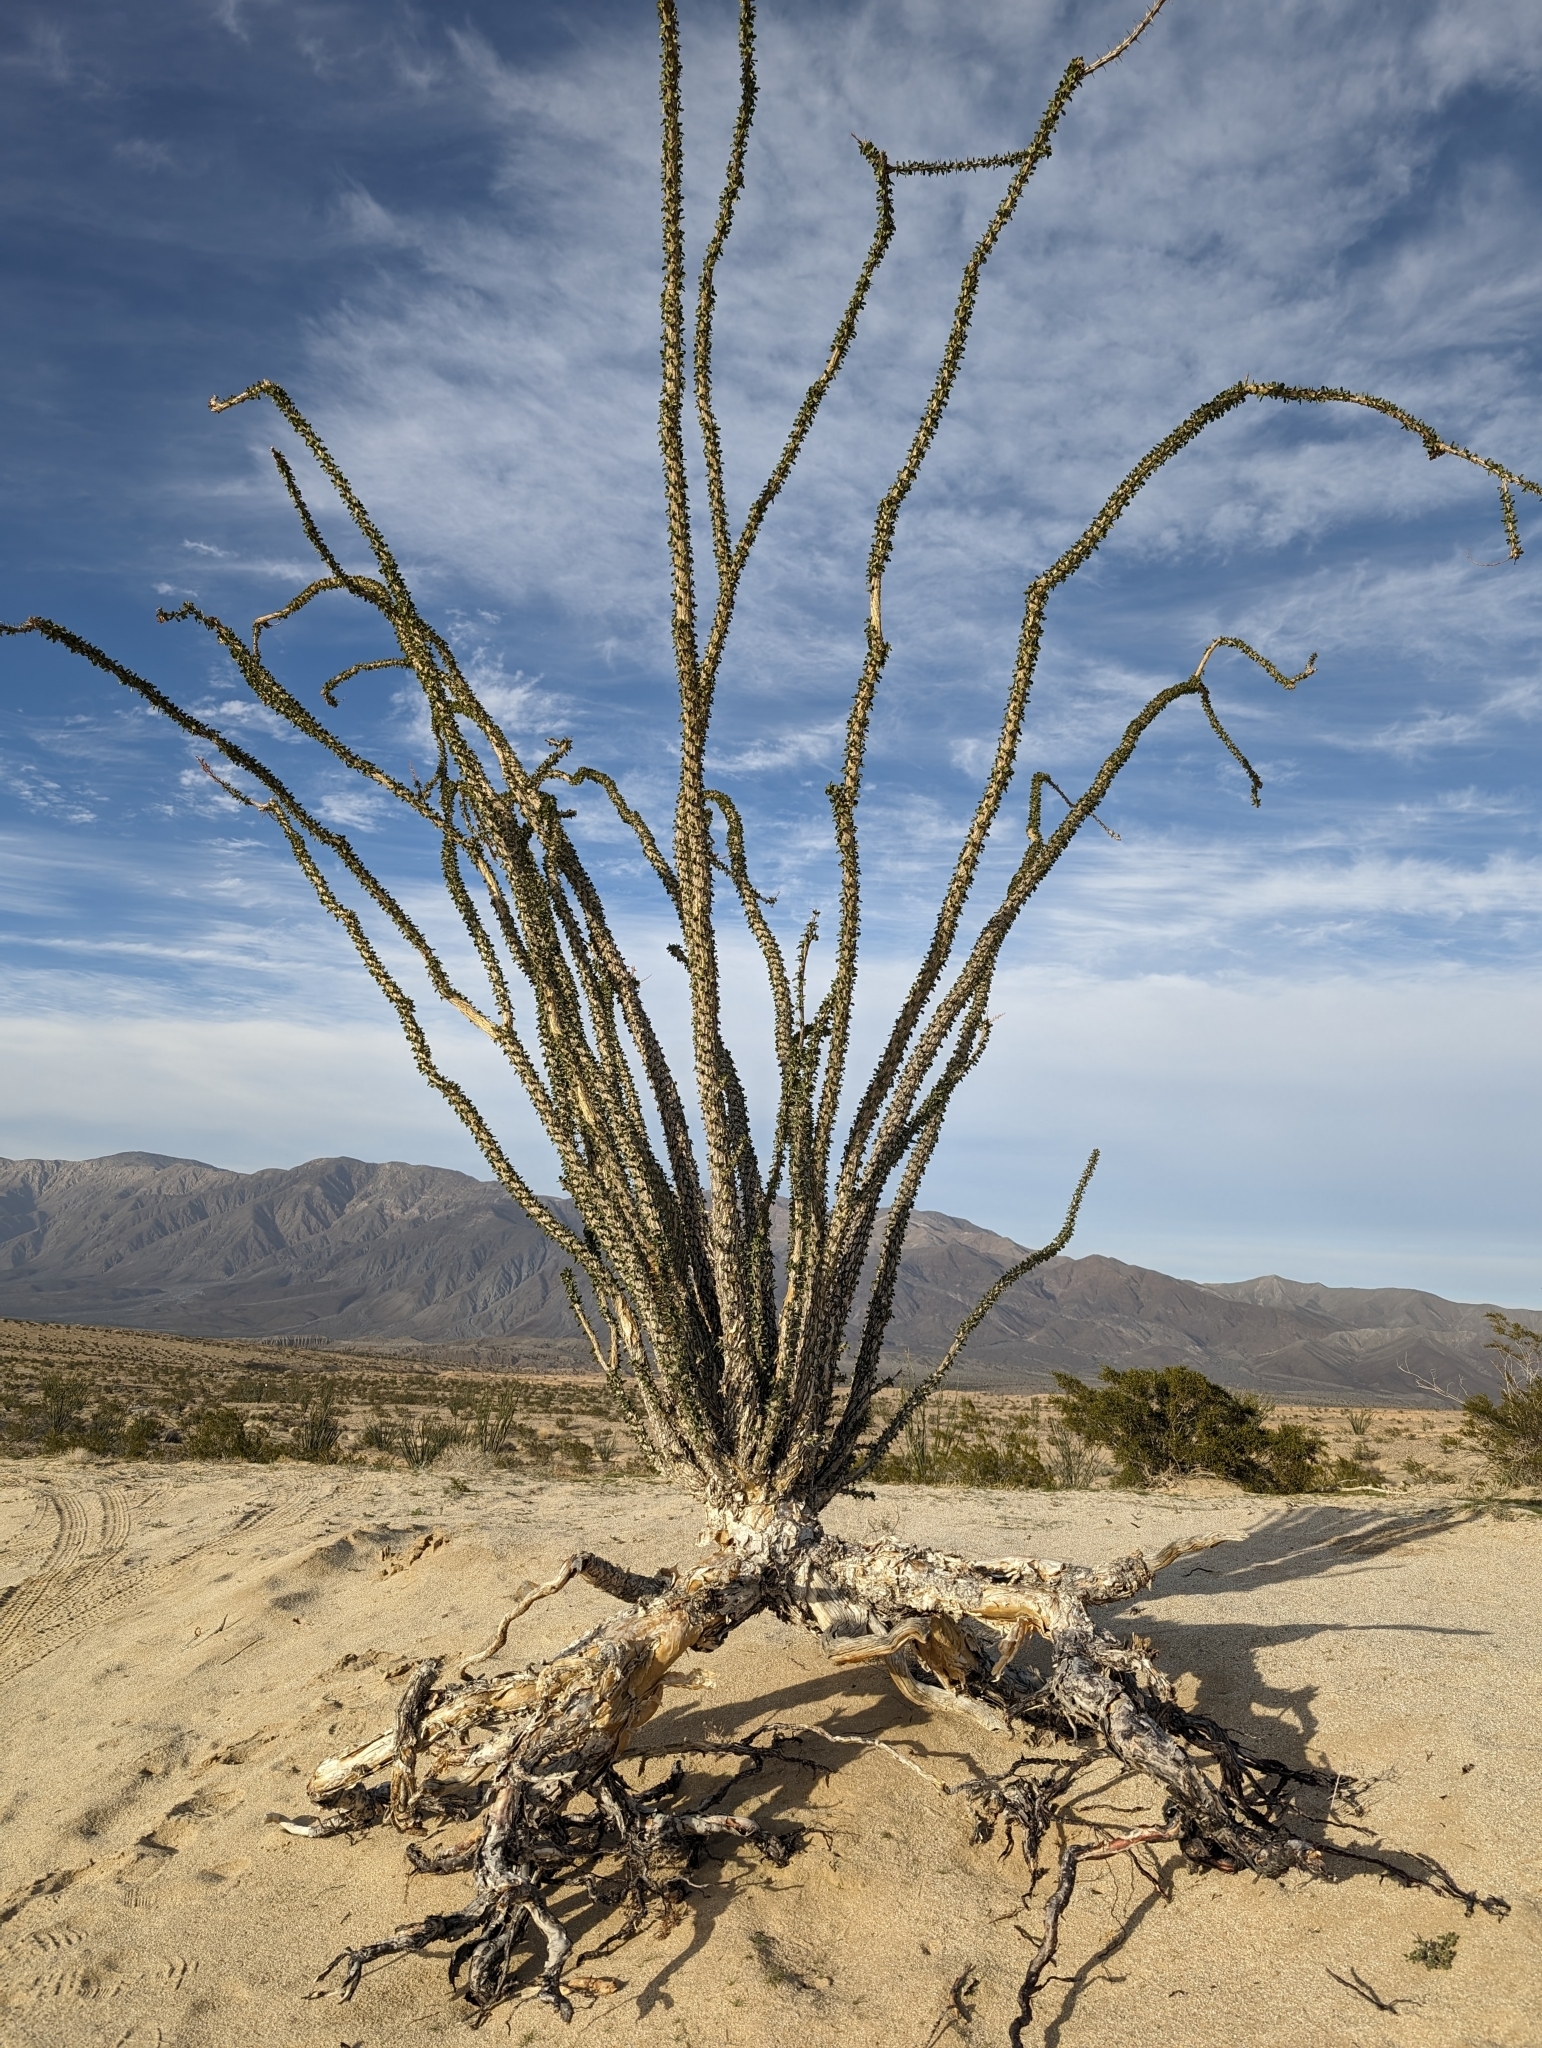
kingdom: Plantae
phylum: Tracheophyta
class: Magnoliopsida
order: Ericales
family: Fouquieriaceae
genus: Fouquieria
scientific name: Fouquieria splendens
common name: Vine-cactus
